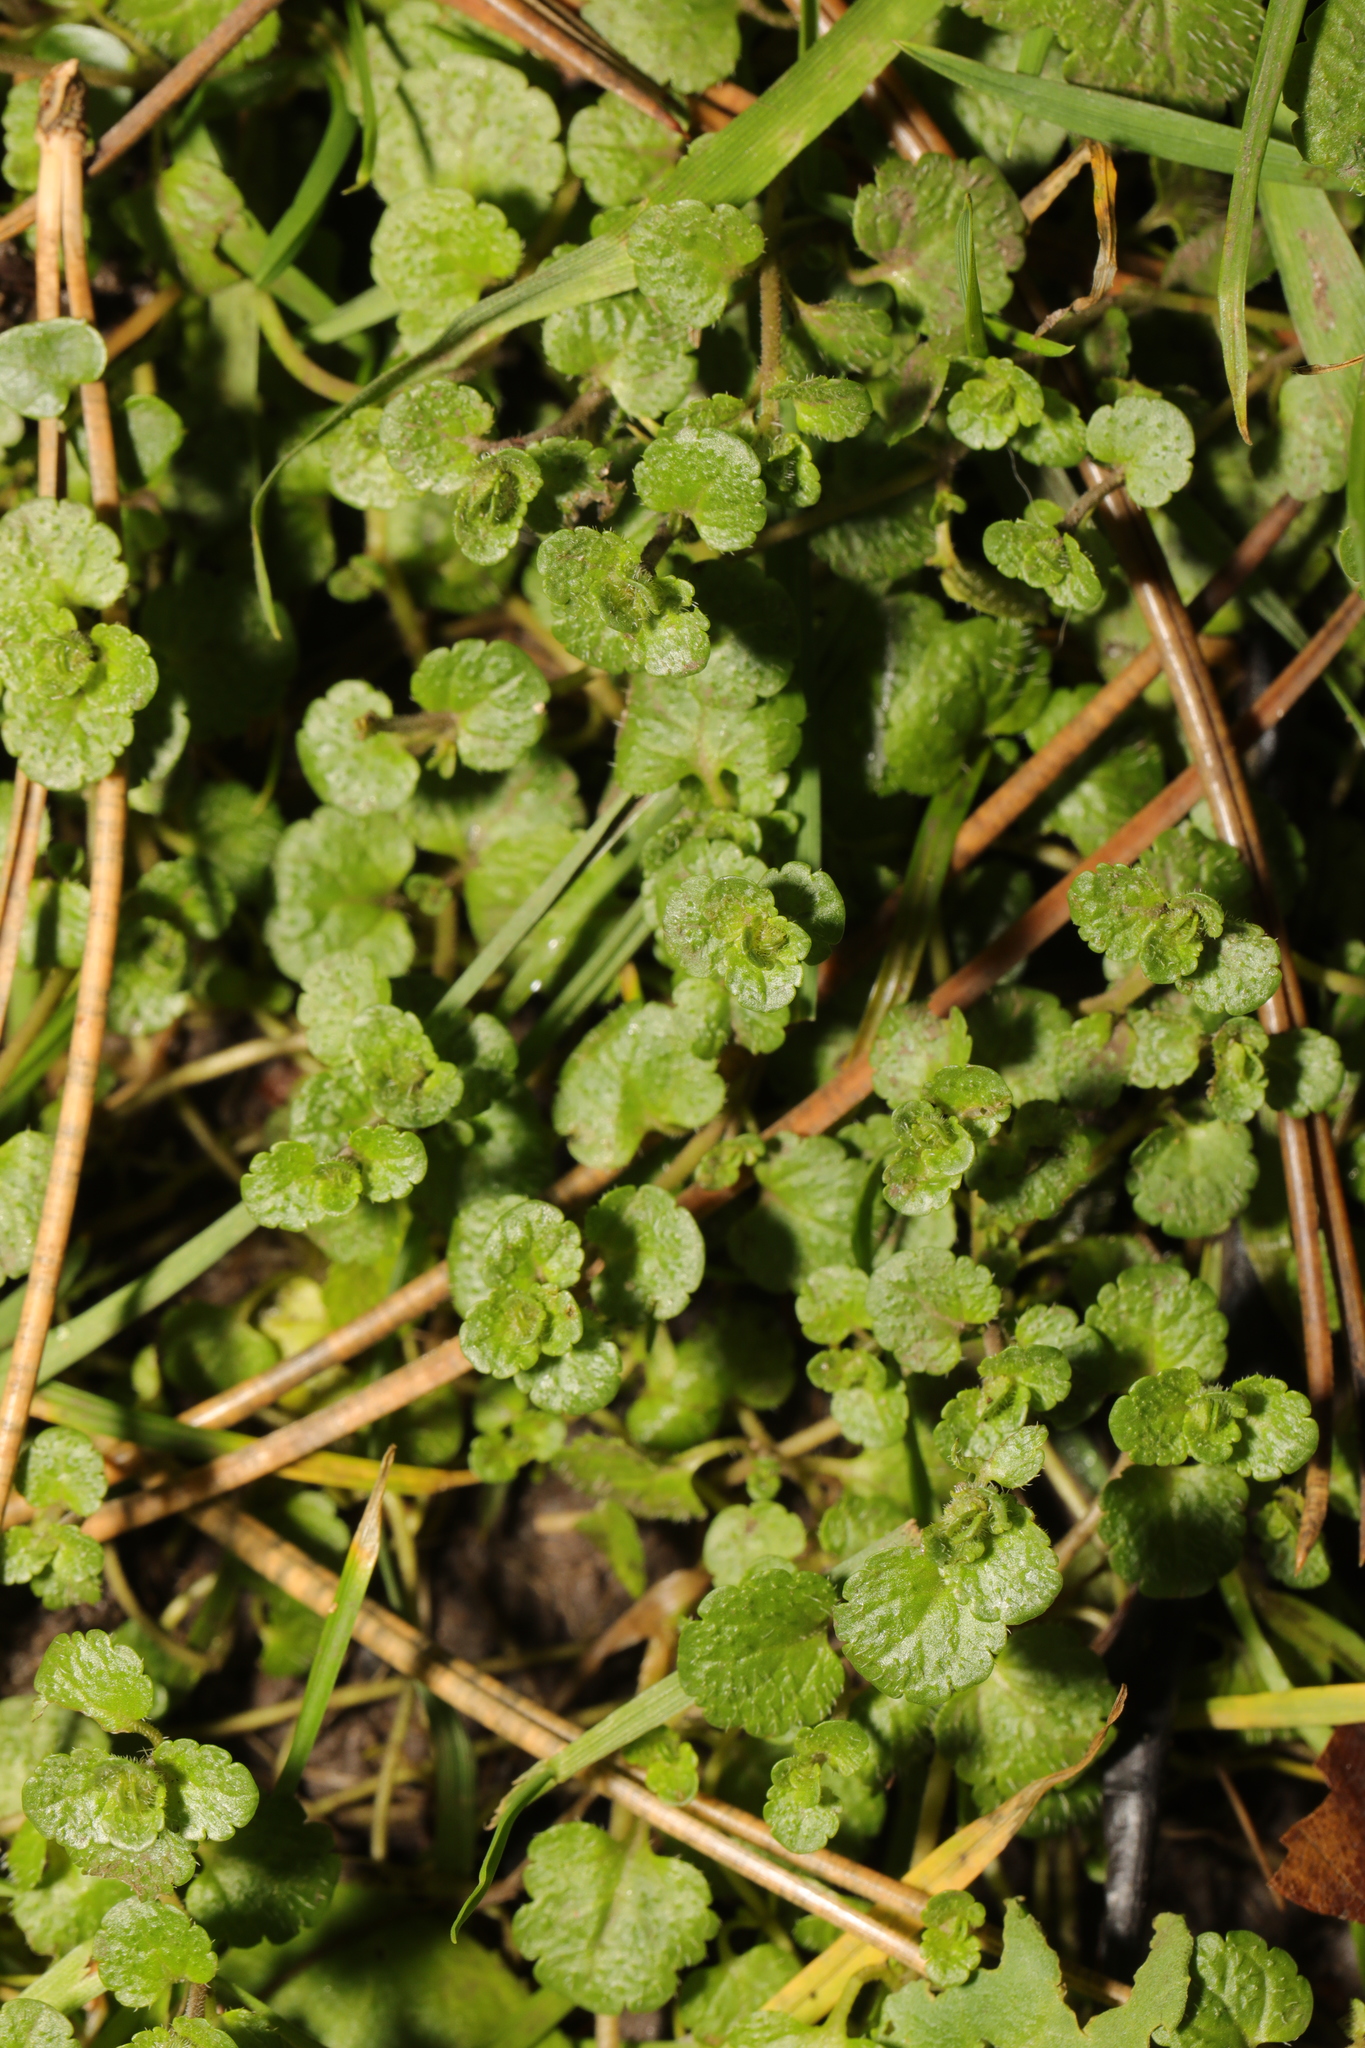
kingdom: Plantae
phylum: Tracheophyta
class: Magnoliopsida
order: Lamiales
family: Plantaginaceae
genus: Veronica
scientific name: Veronica filiformis
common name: Slender speedwell
